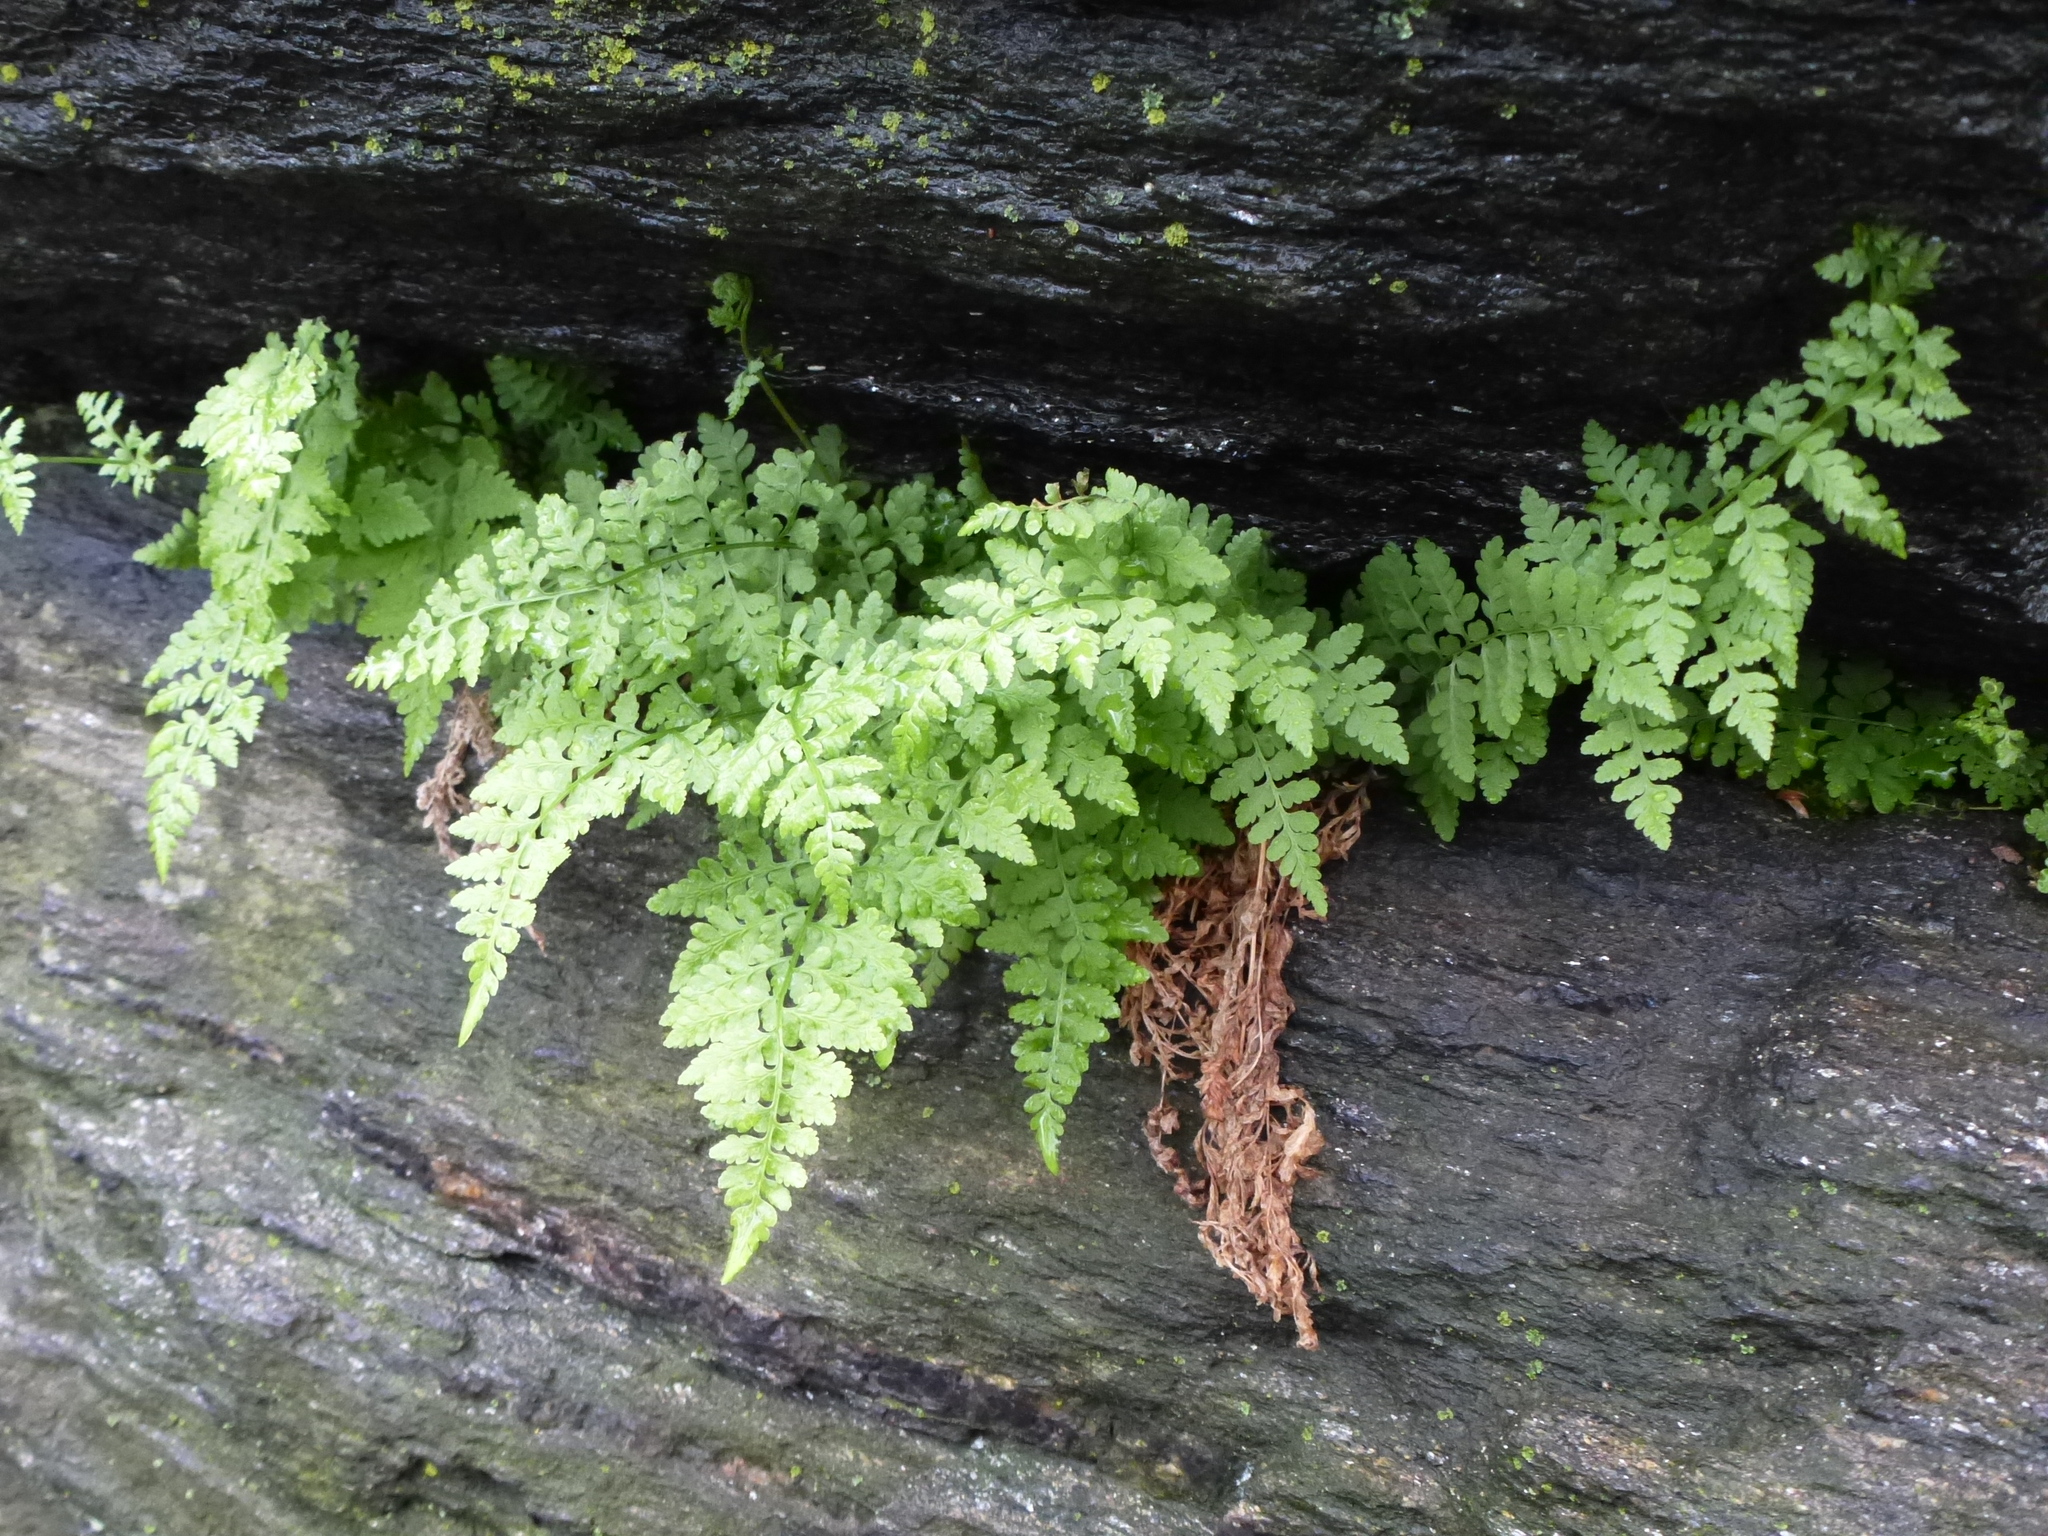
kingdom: Plantae
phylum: Tracheophyta
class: Polypodiopsida
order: Polypodiales
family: Woodsiaceae
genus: Physematium
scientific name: Physematium obtusum
